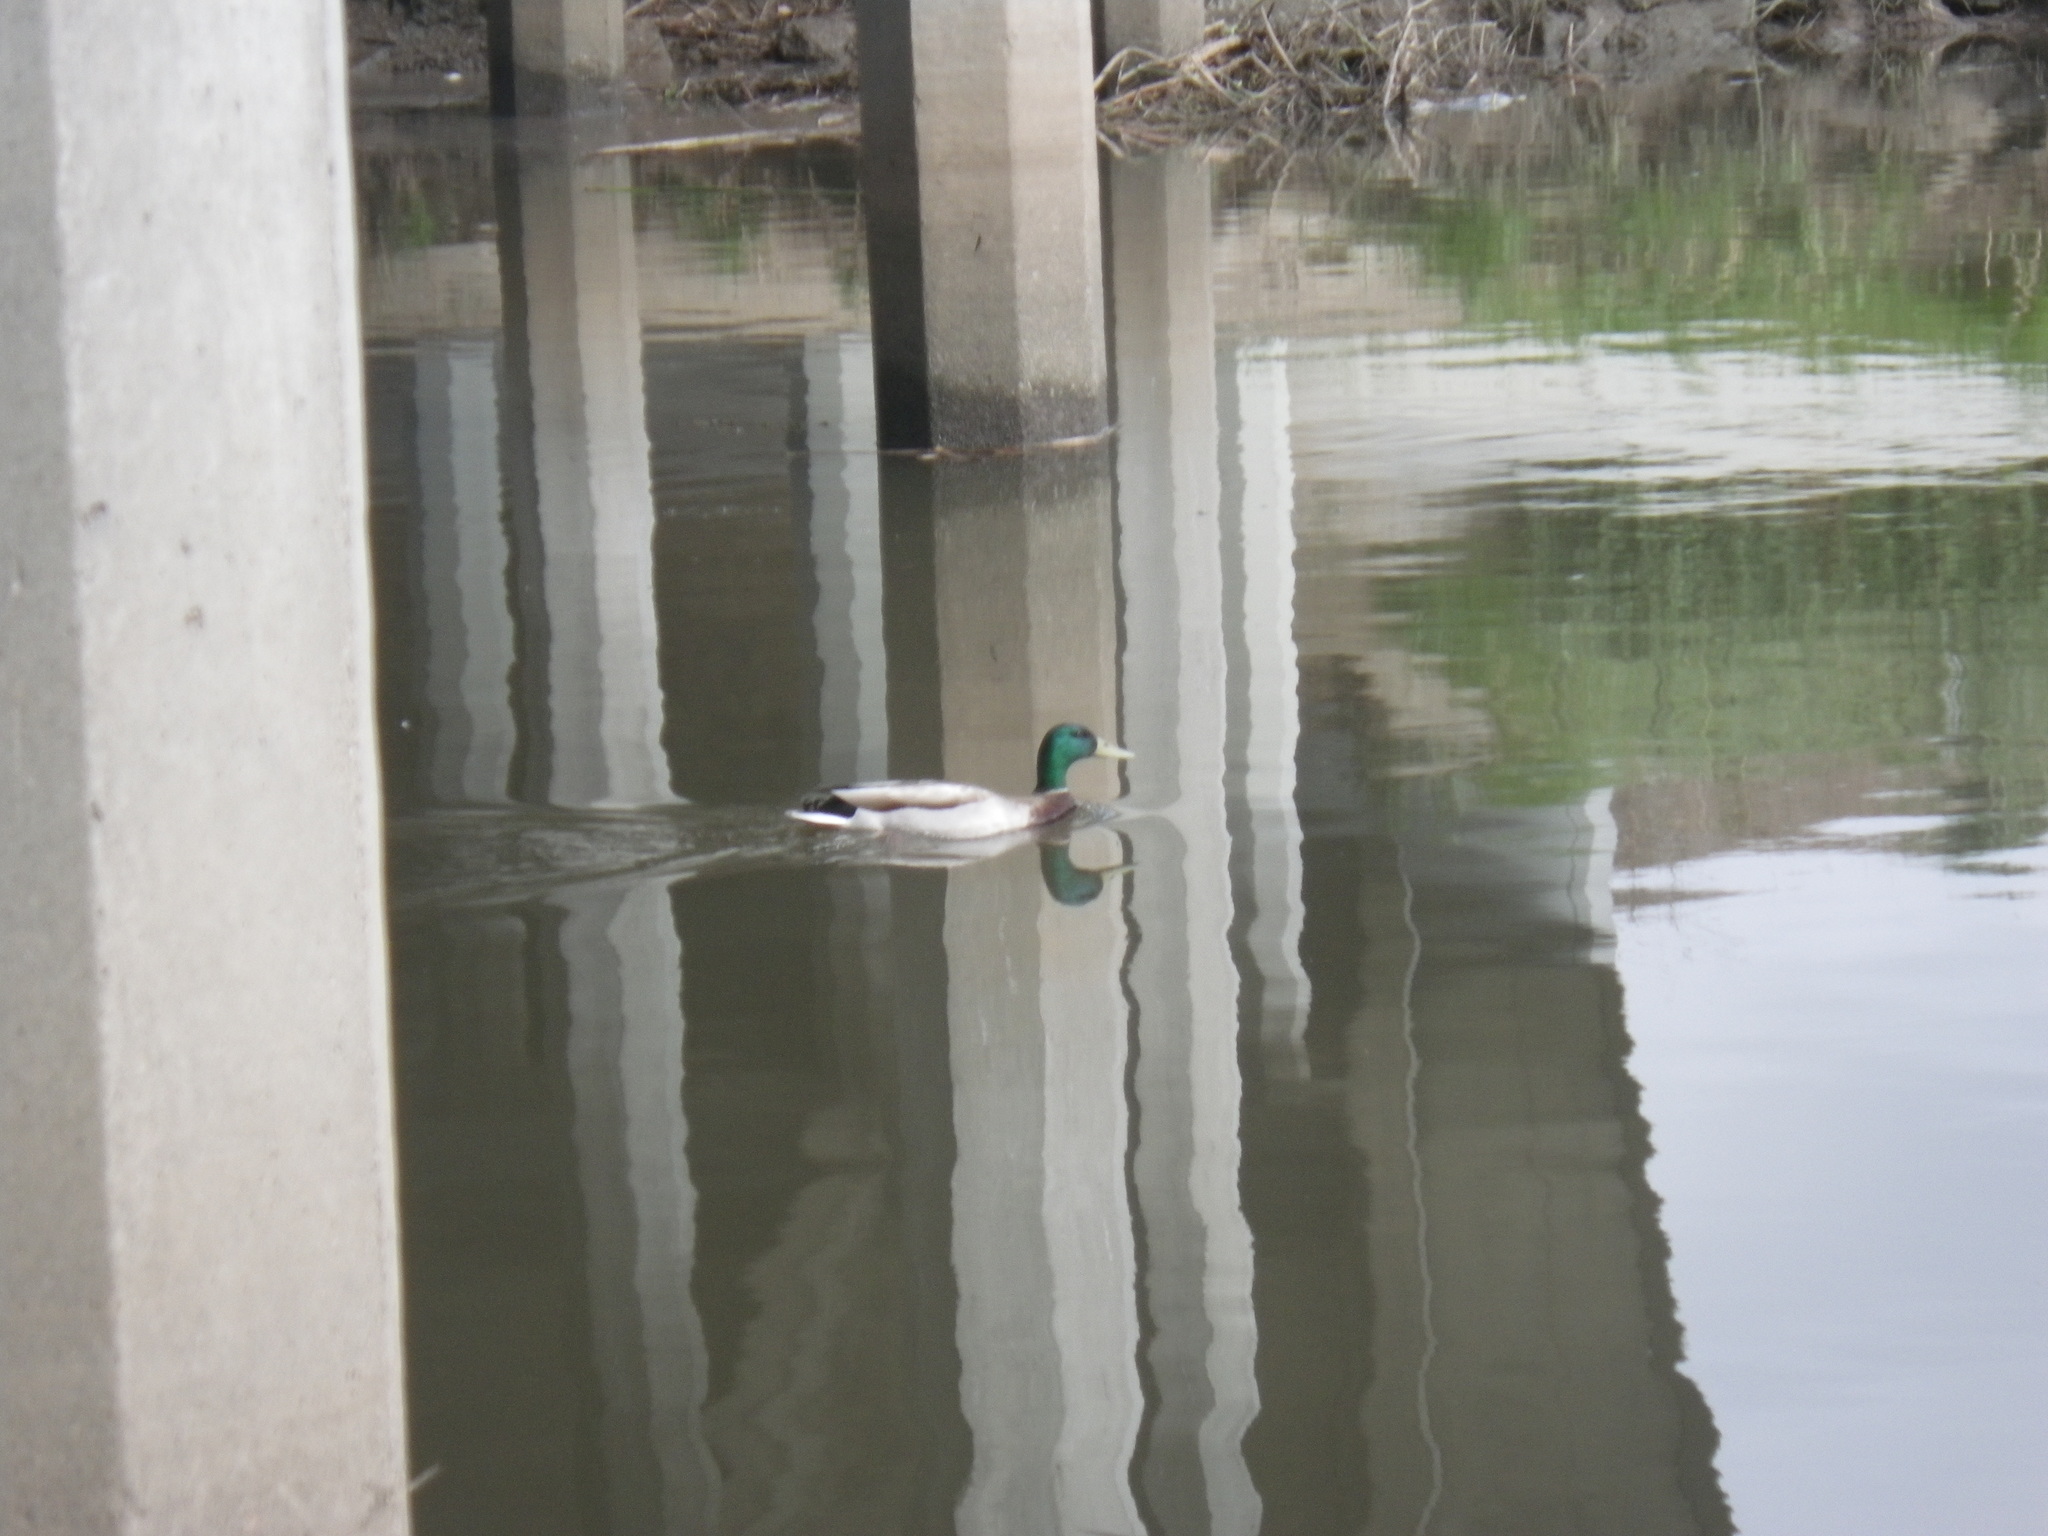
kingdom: Animalia
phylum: Chordata
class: Aves
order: Anseriformes
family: Anatidae
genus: Anas
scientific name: Anas platyrhynchos
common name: Mallard
